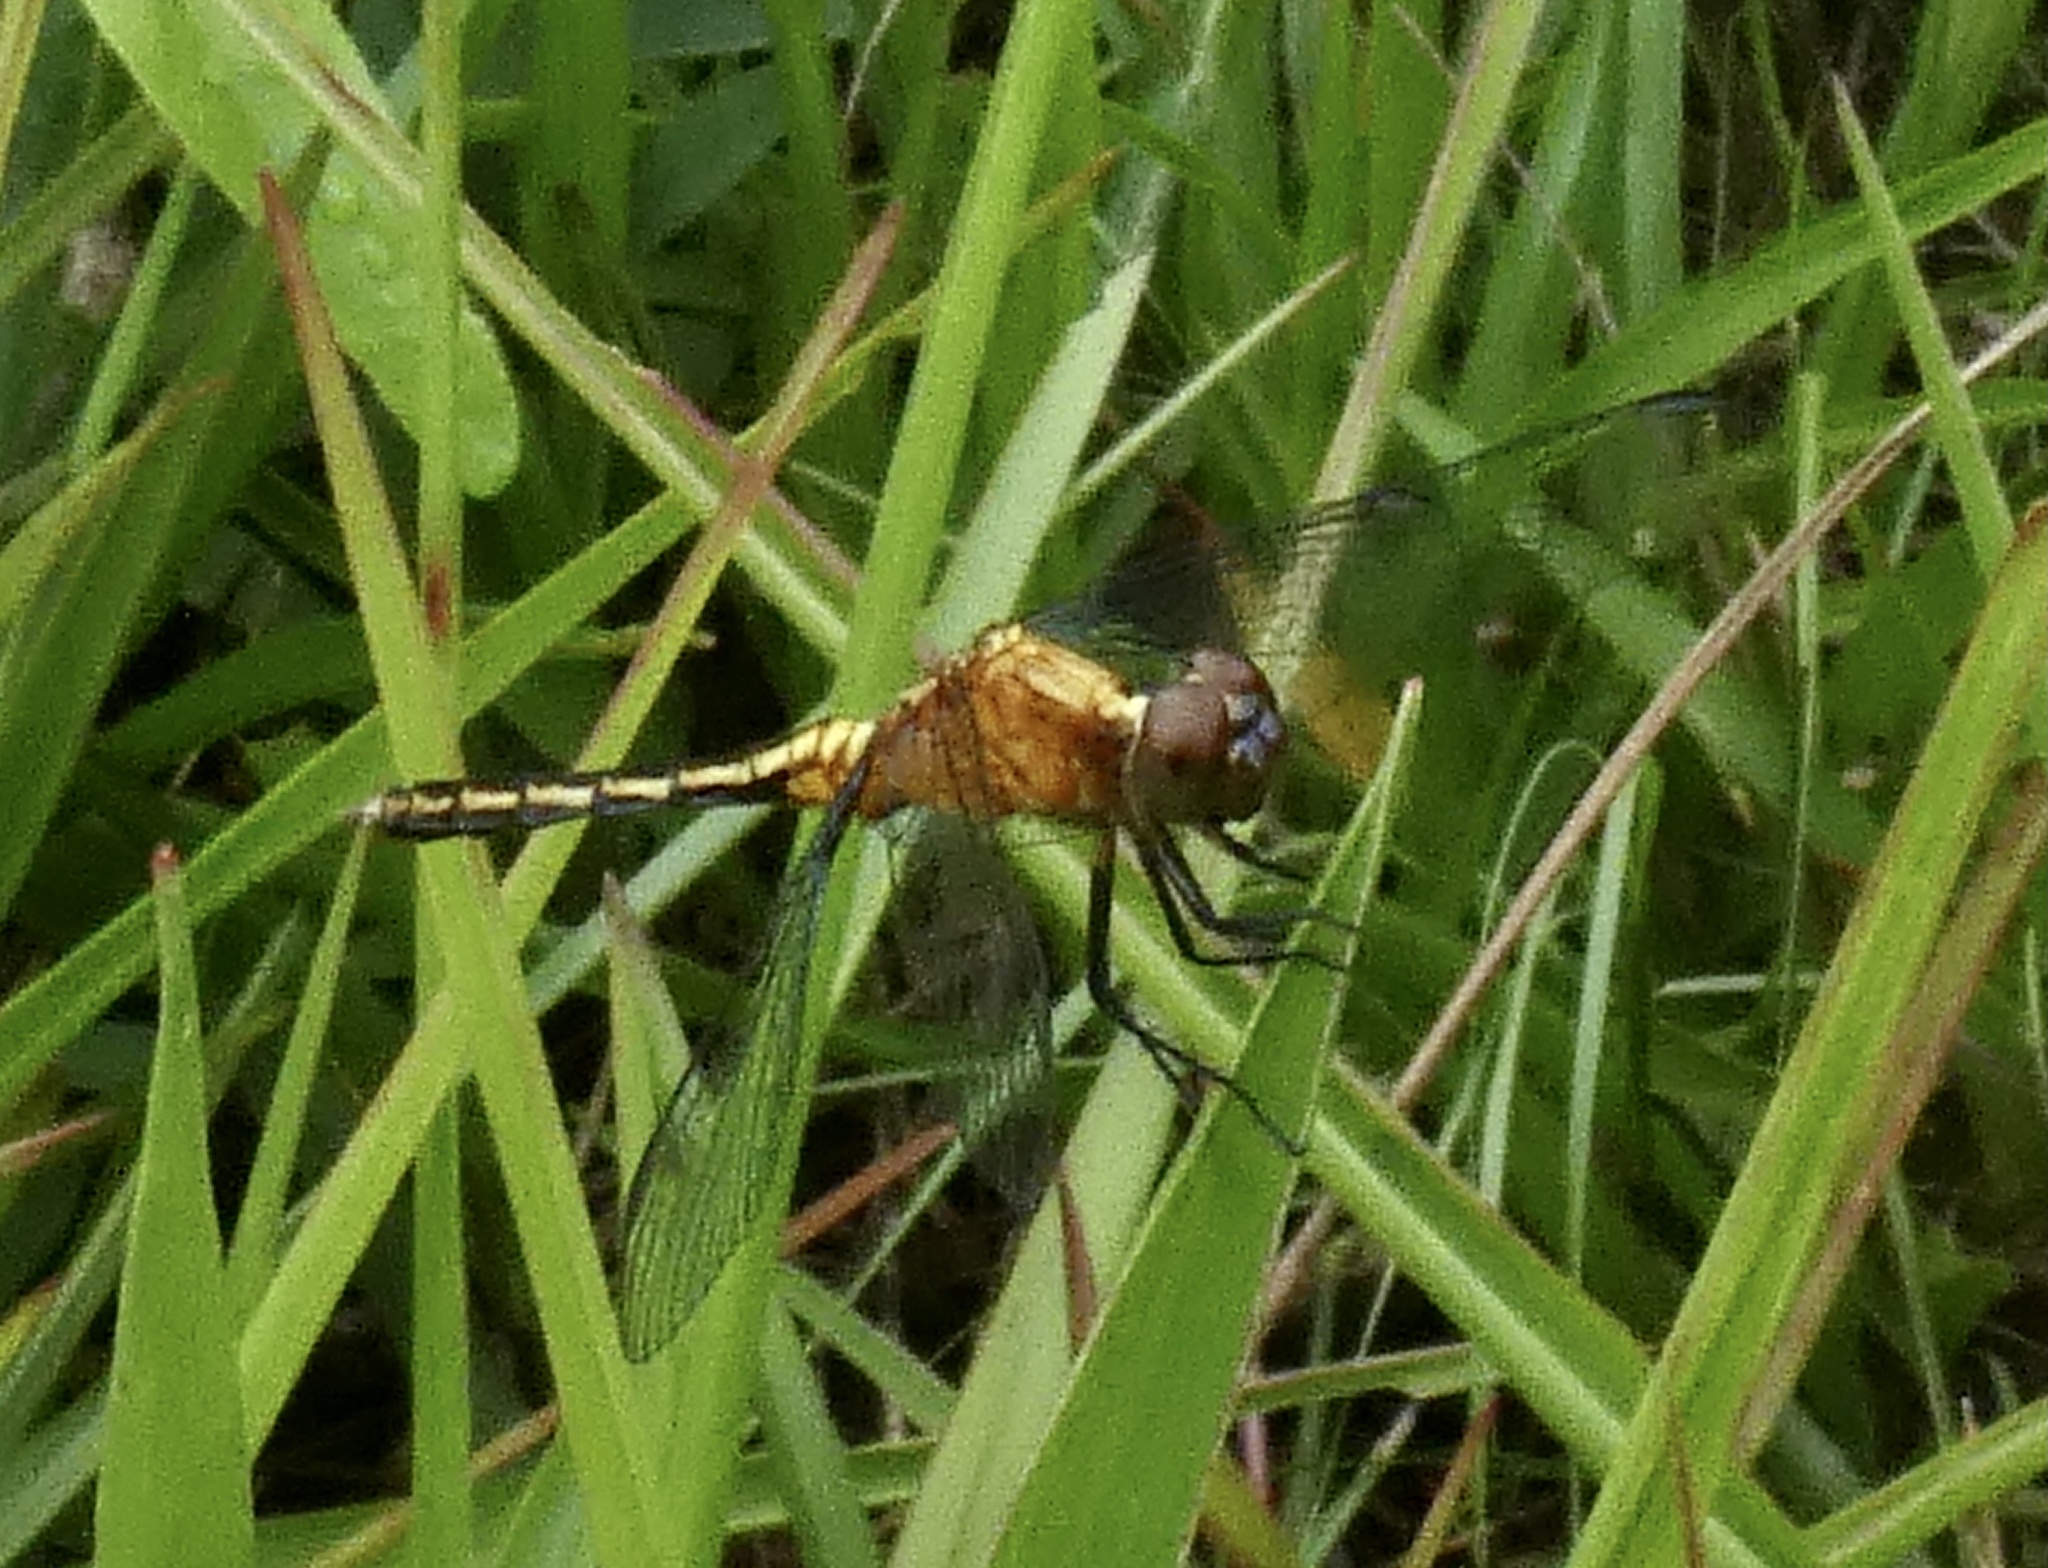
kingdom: Animalia
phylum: Arthropoda
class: Insecta
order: Odonata
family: Libellulidae
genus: Erythrodiplax
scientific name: Erythrodiplax avittata
